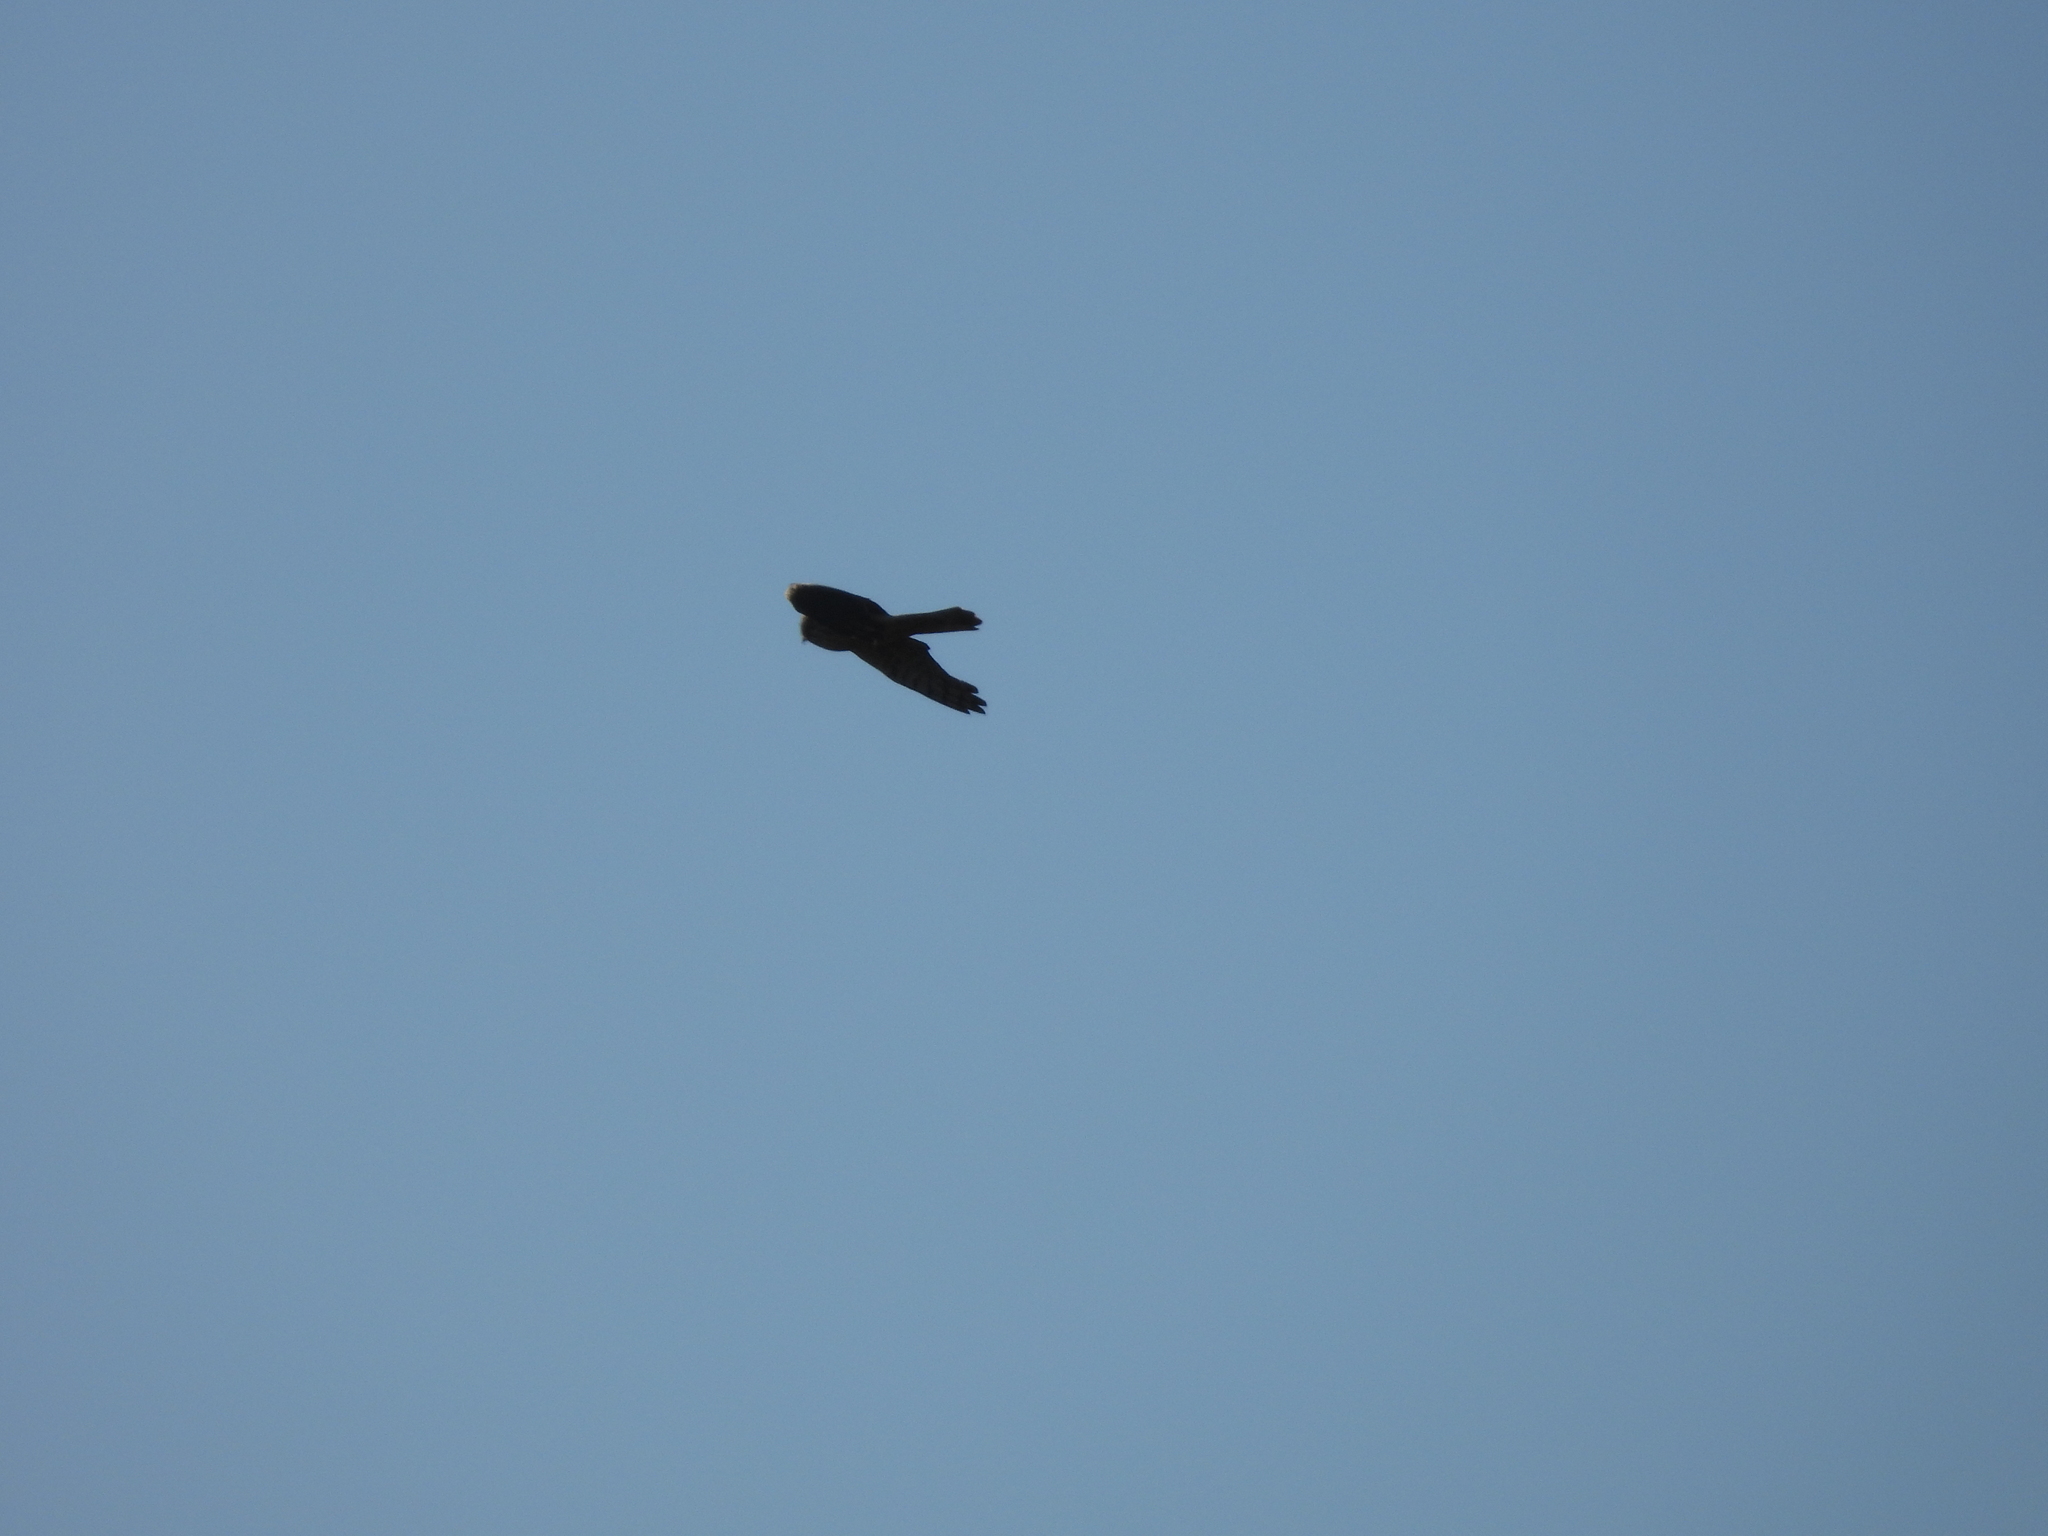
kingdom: Animalia
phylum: Chordata
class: Aves
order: Accipitriformes
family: Accipitridae
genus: Circus
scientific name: Circus cyaneus
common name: Hen harrier
